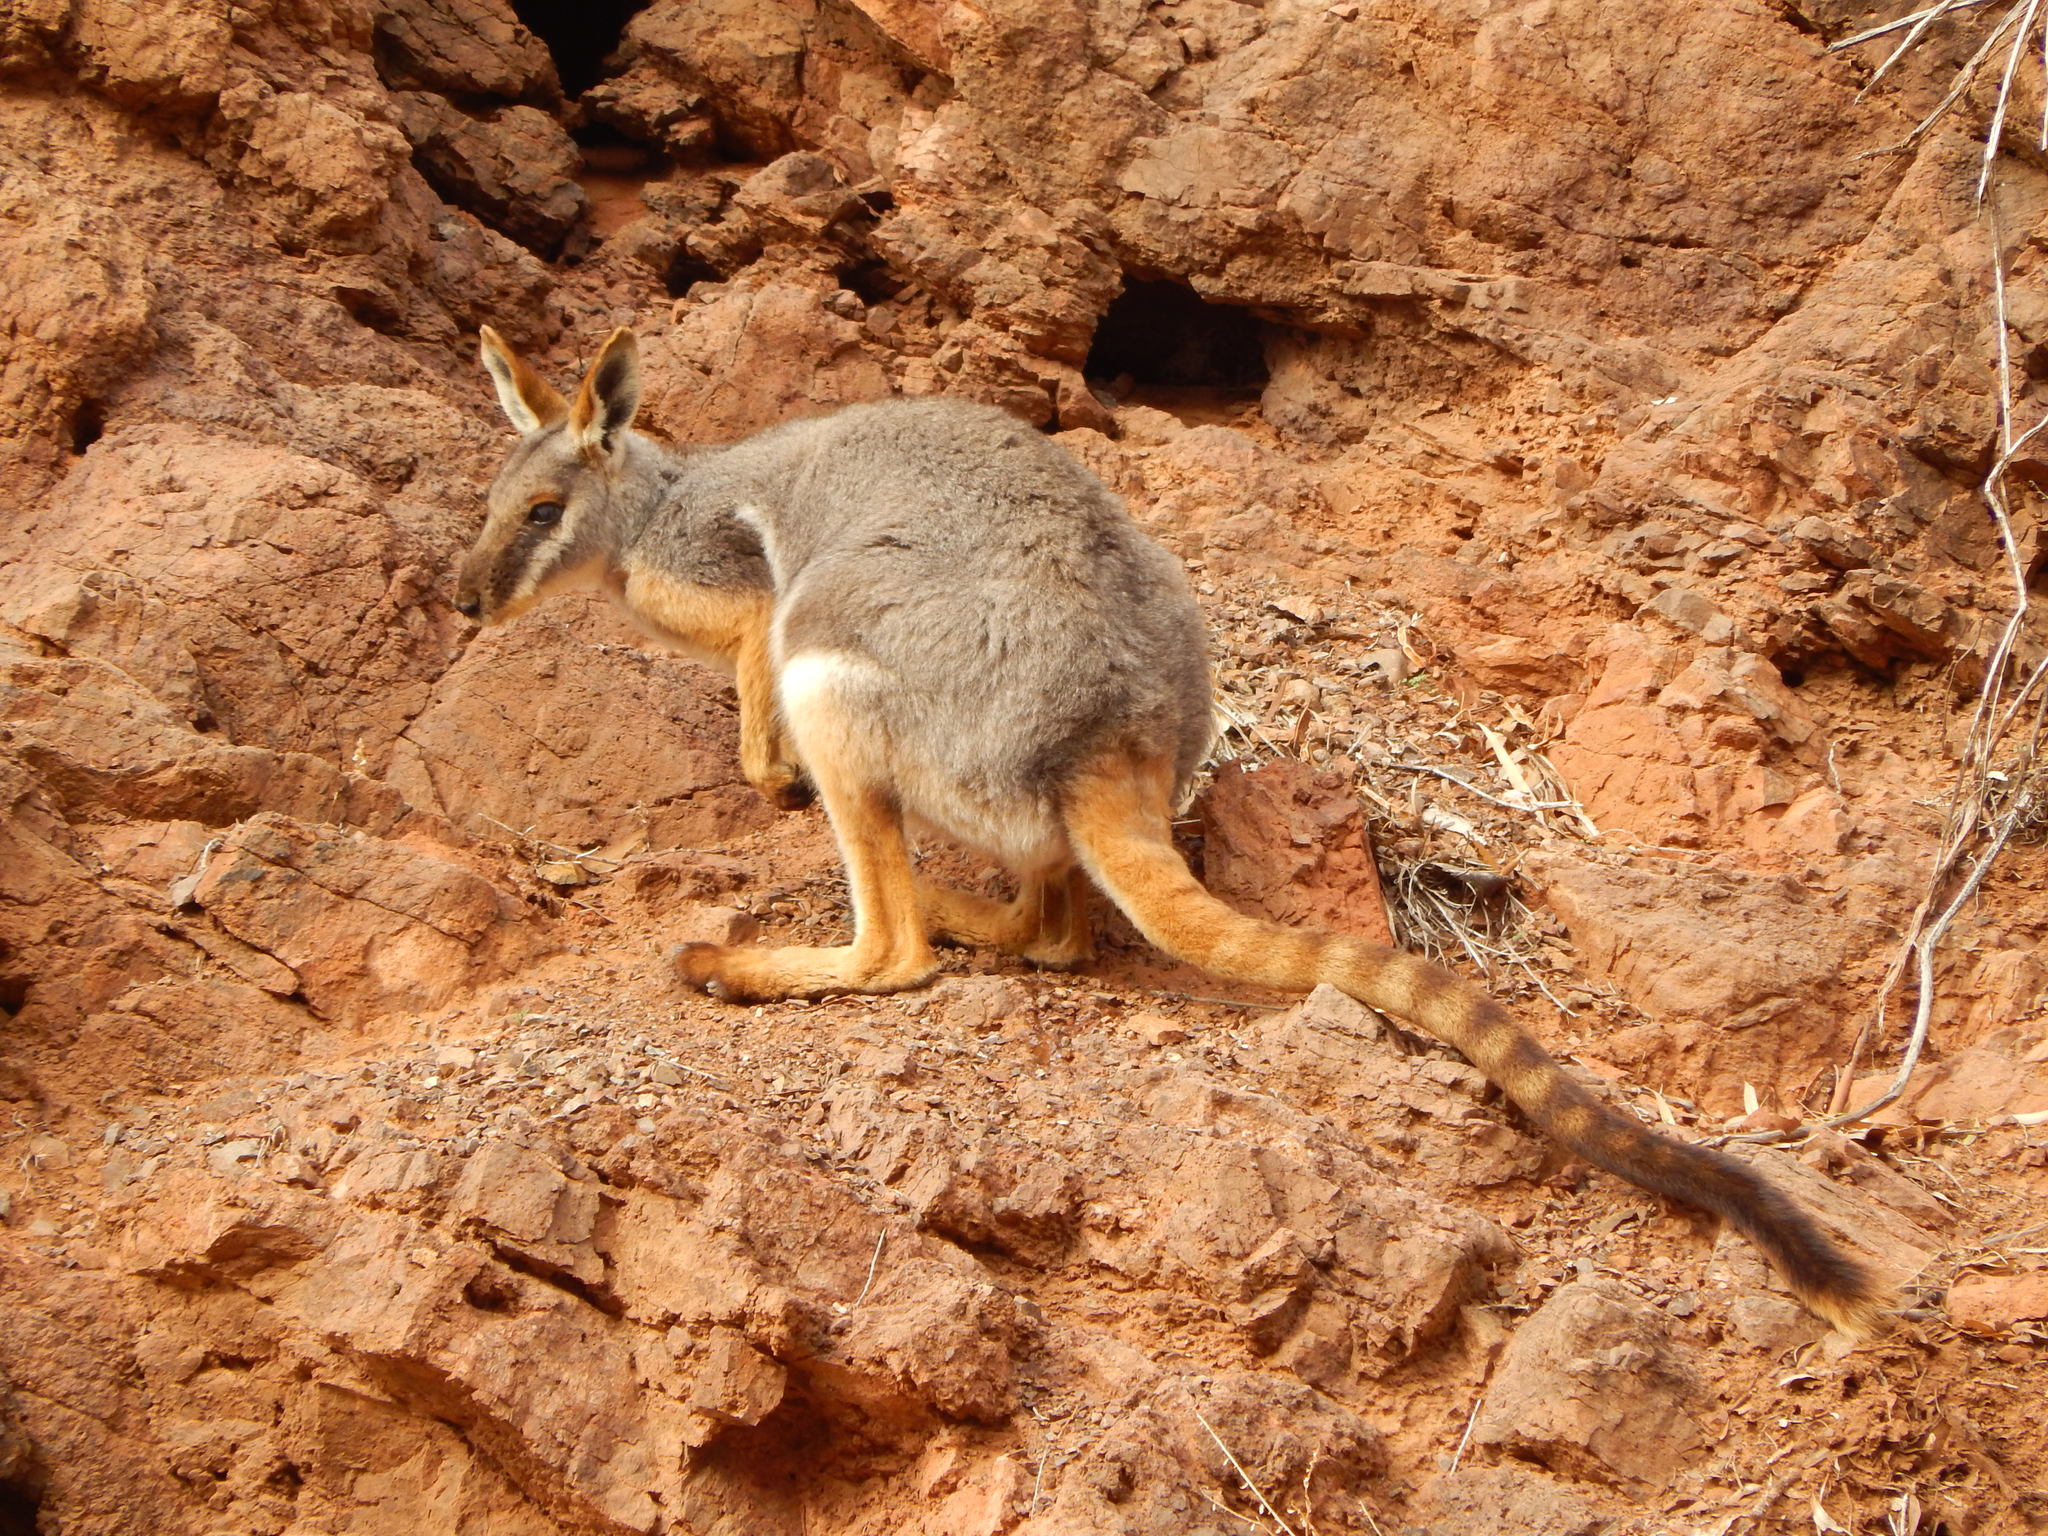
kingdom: Animalia
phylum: Chordata
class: Mammalia
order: Diprotodontia
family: Macropodidae
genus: Petrogale
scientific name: Petrogale xanthopus
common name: Yellow-footed rock-wallaby
